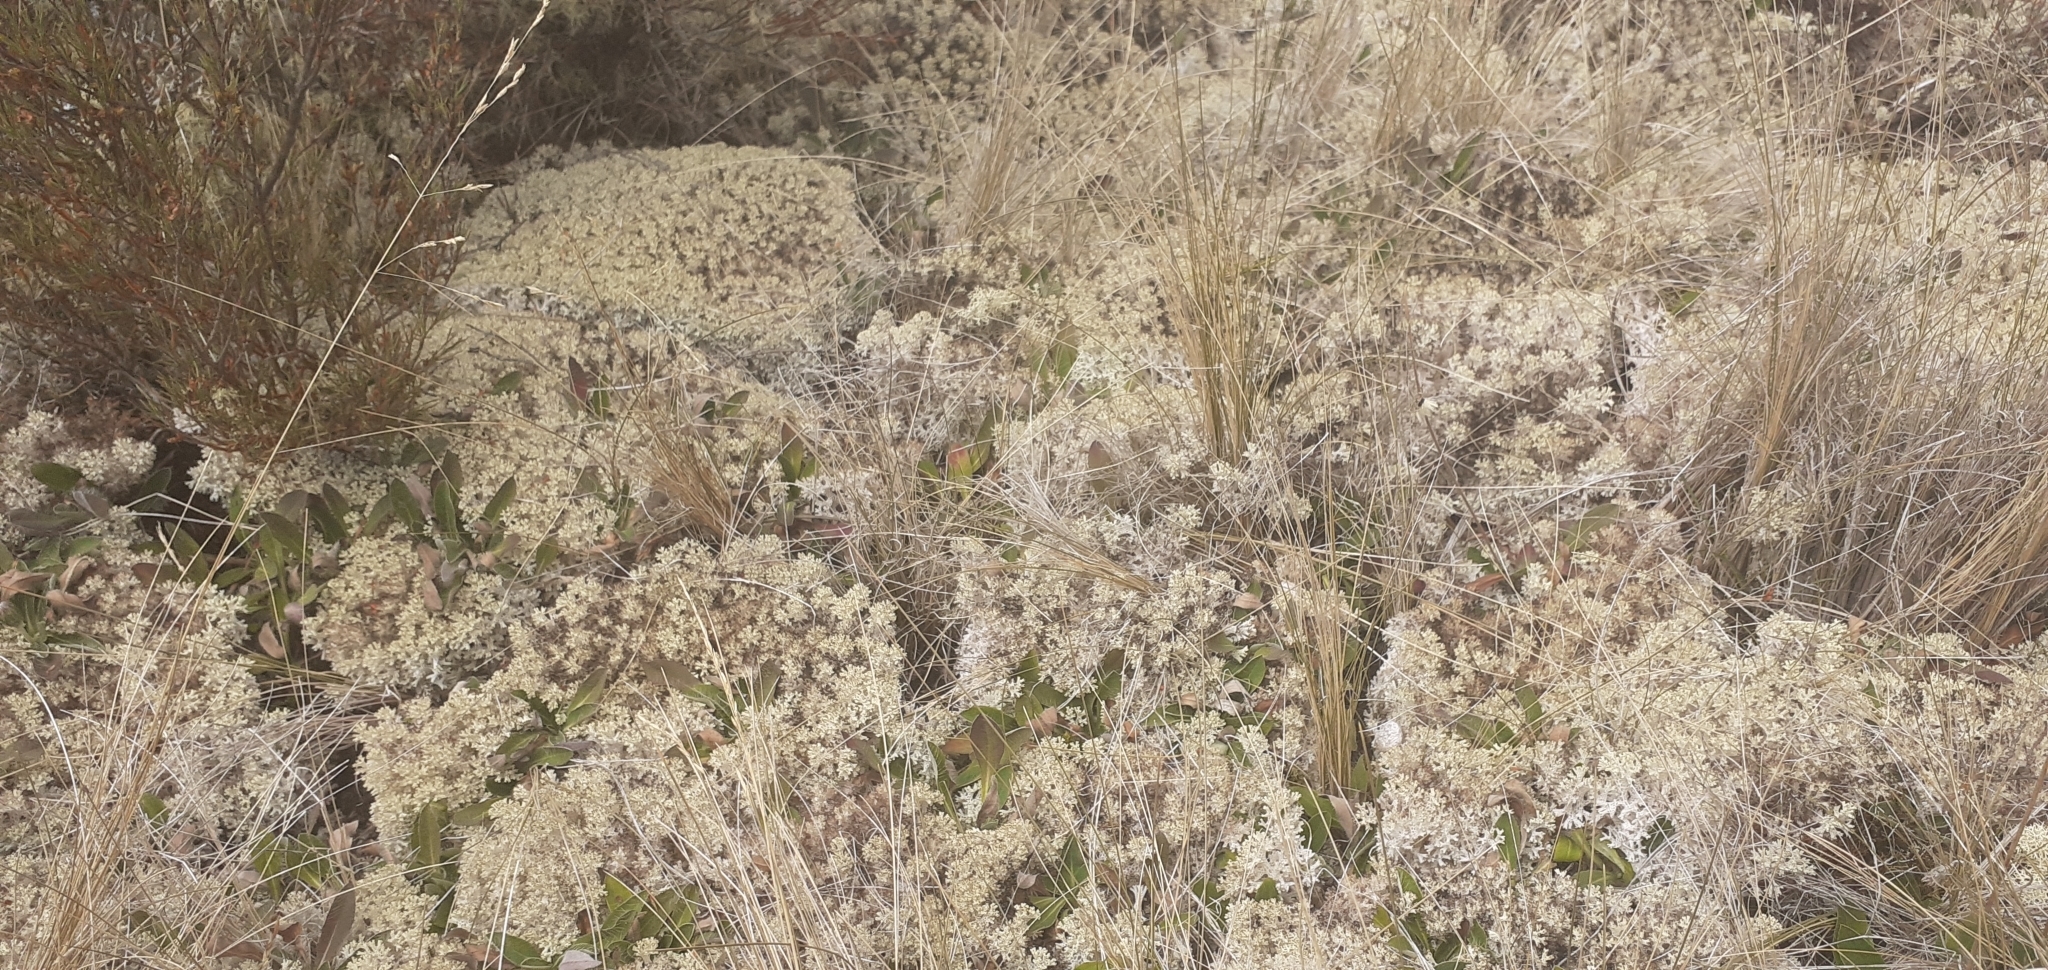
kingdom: Fungi
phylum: Ascomycota
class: Lecanoromycetes
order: Lecanorales
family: Cladoniaceae
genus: Pulchrocladia
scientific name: Pulchrocladia retipora
